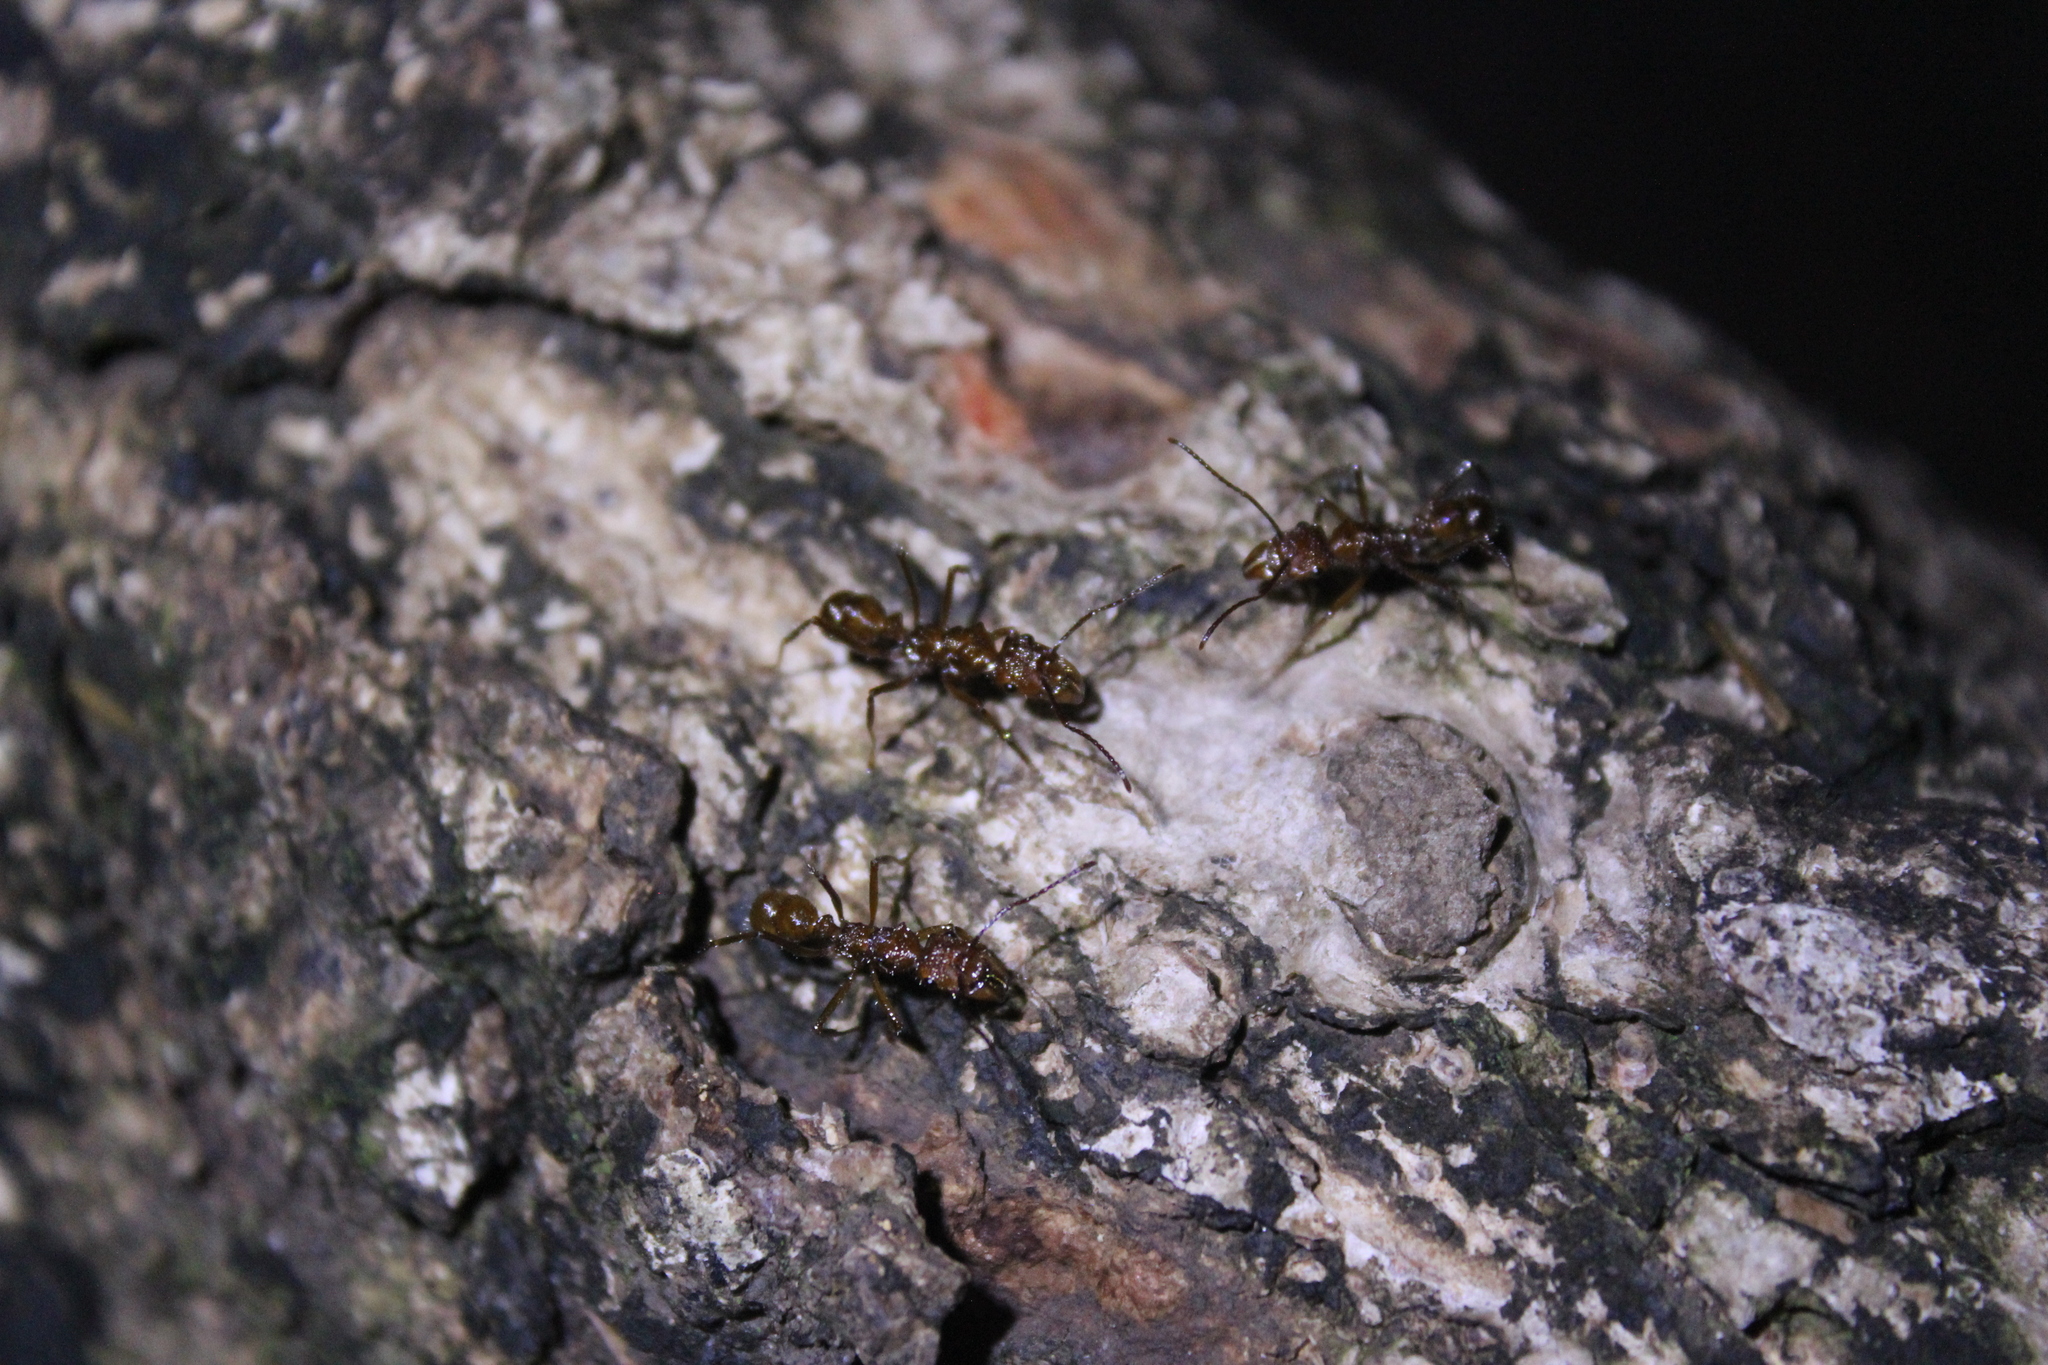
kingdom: Animalia
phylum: Arthropoda
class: Insecta
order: Hymenoptera
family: Formicidae
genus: Ectatomma
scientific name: Ectatomma tuberculatum
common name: Ant
